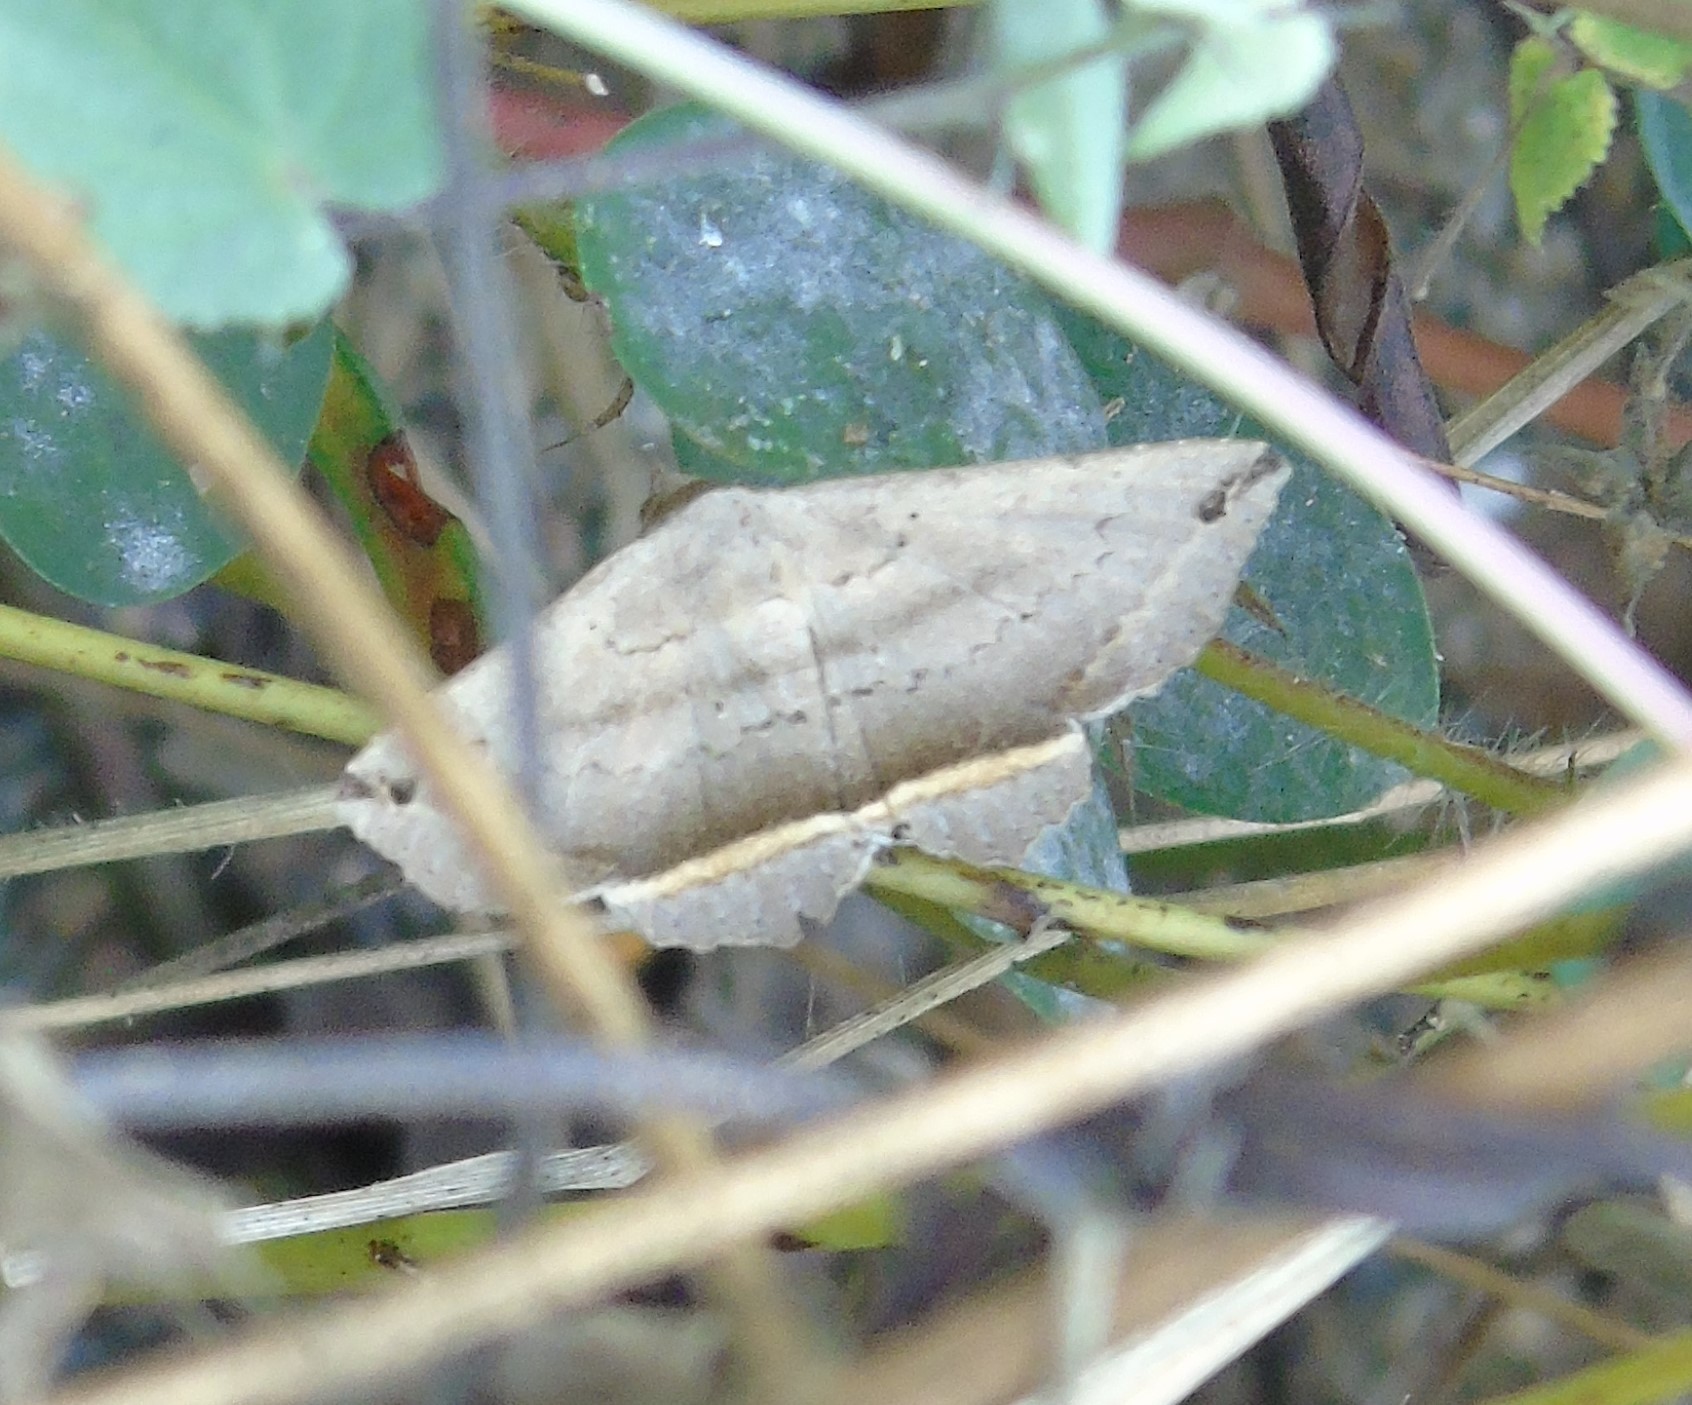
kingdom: Animalia
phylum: Arthropoda
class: Insecta
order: Lepidoptera
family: Erebidae
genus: Lesmone
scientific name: Lesmone formularis
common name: Lesmone moth
